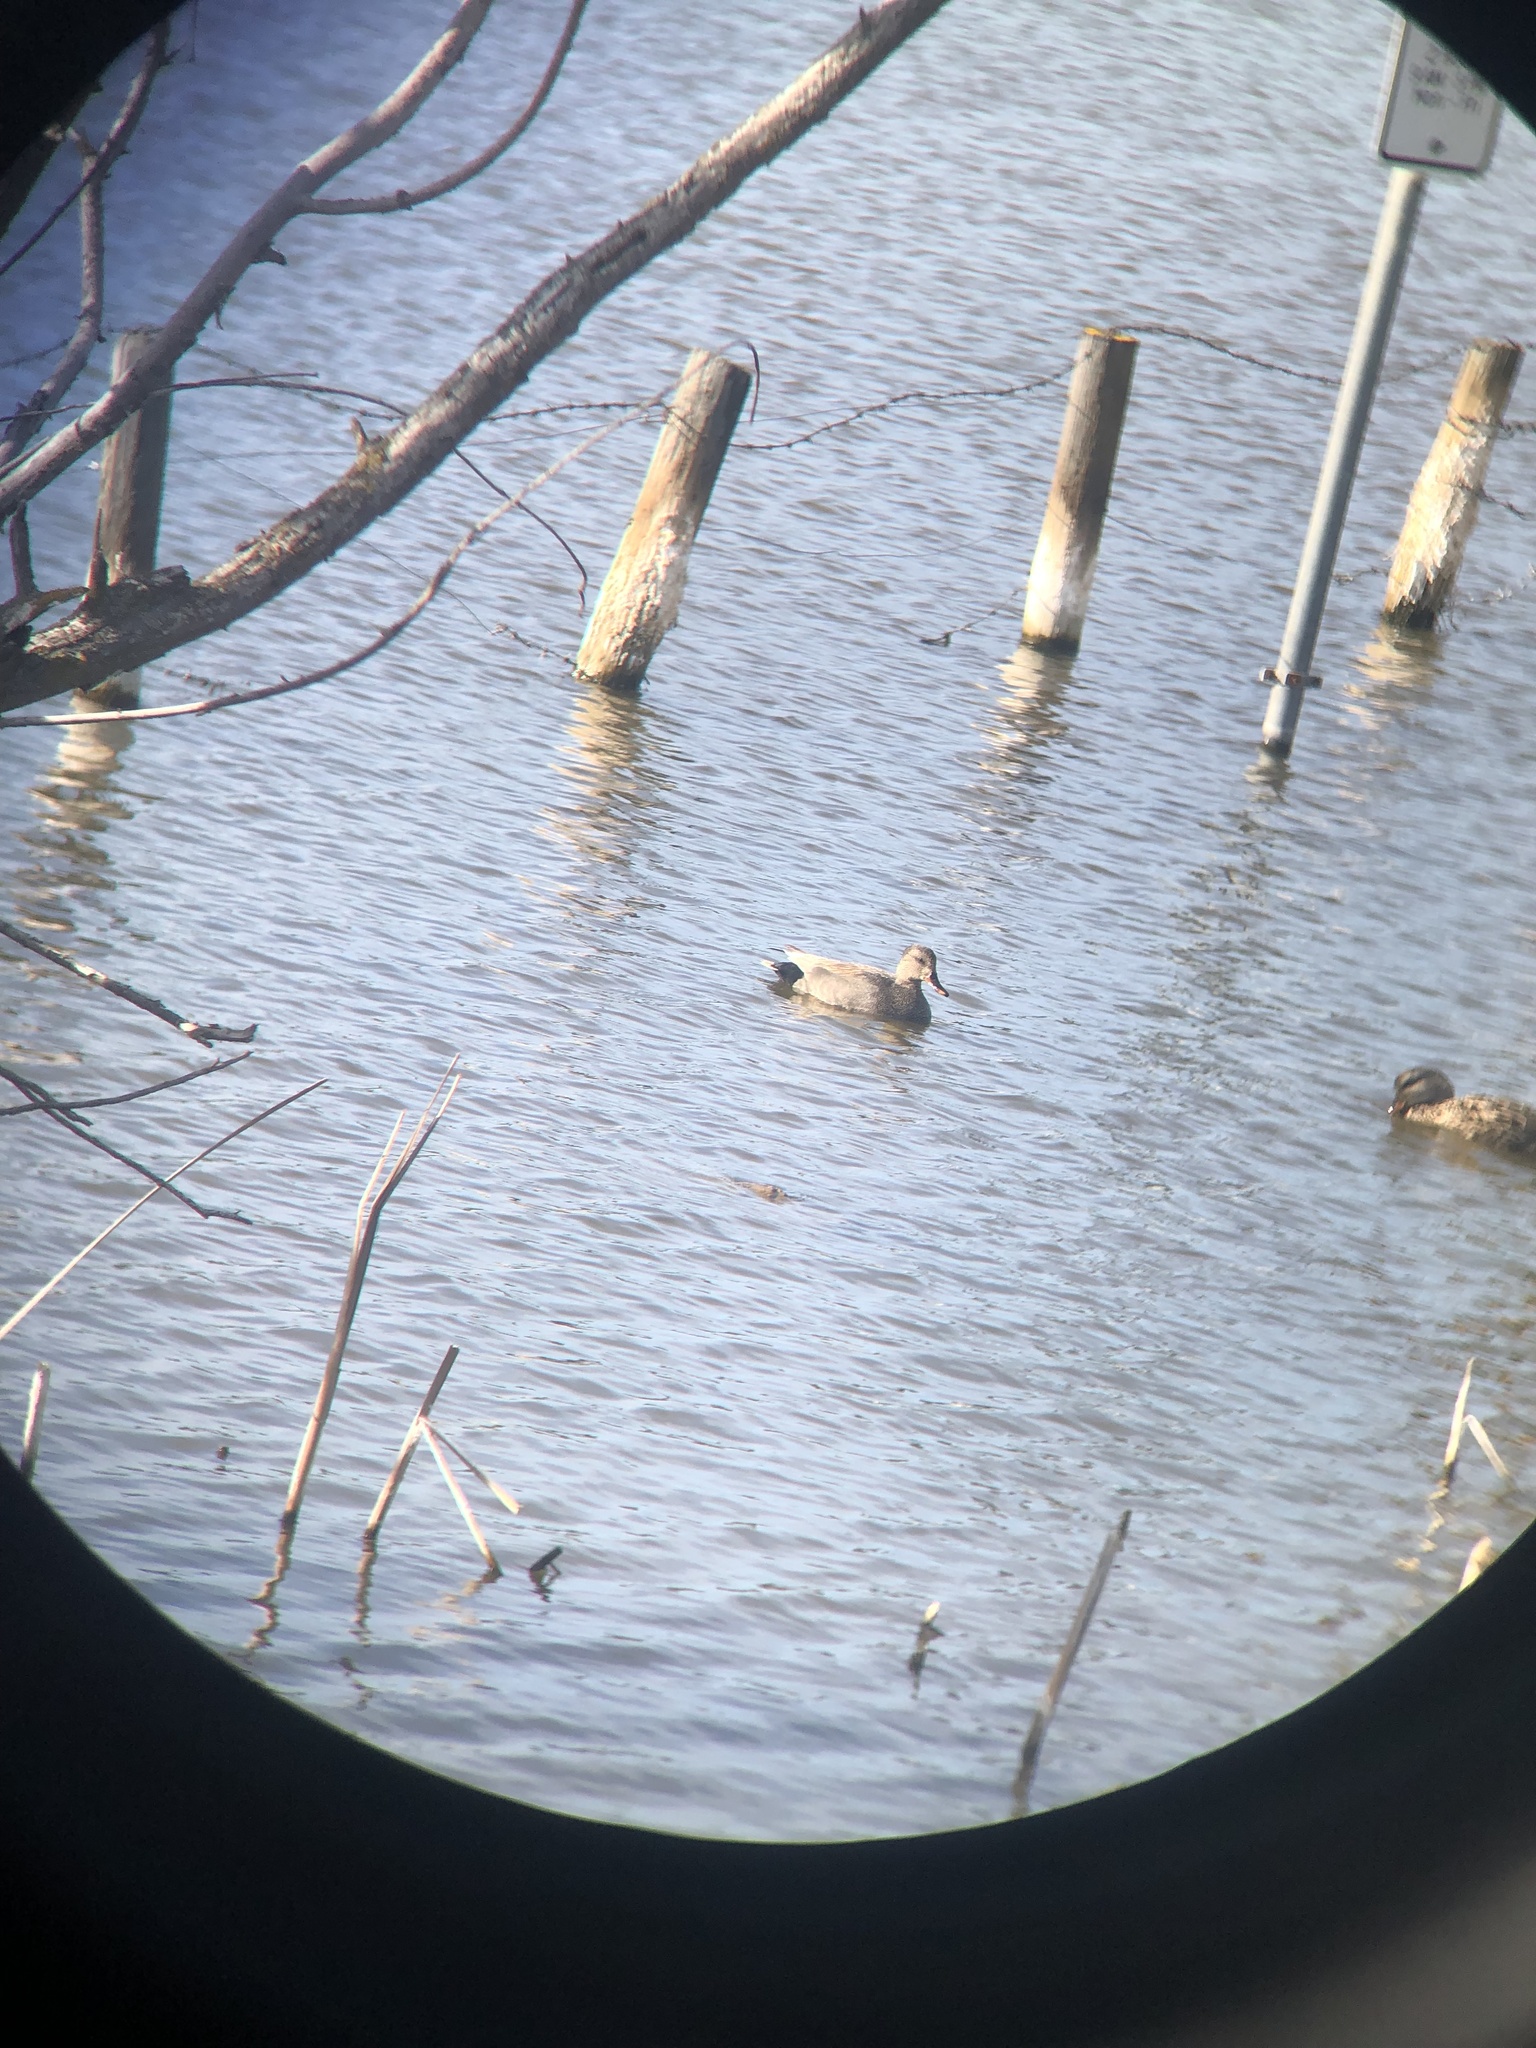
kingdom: Animalia
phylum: Chordata
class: Aves
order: Anseriformes
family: Anatidae
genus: Mareca
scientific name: Mareca strepera
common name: Gadwall
